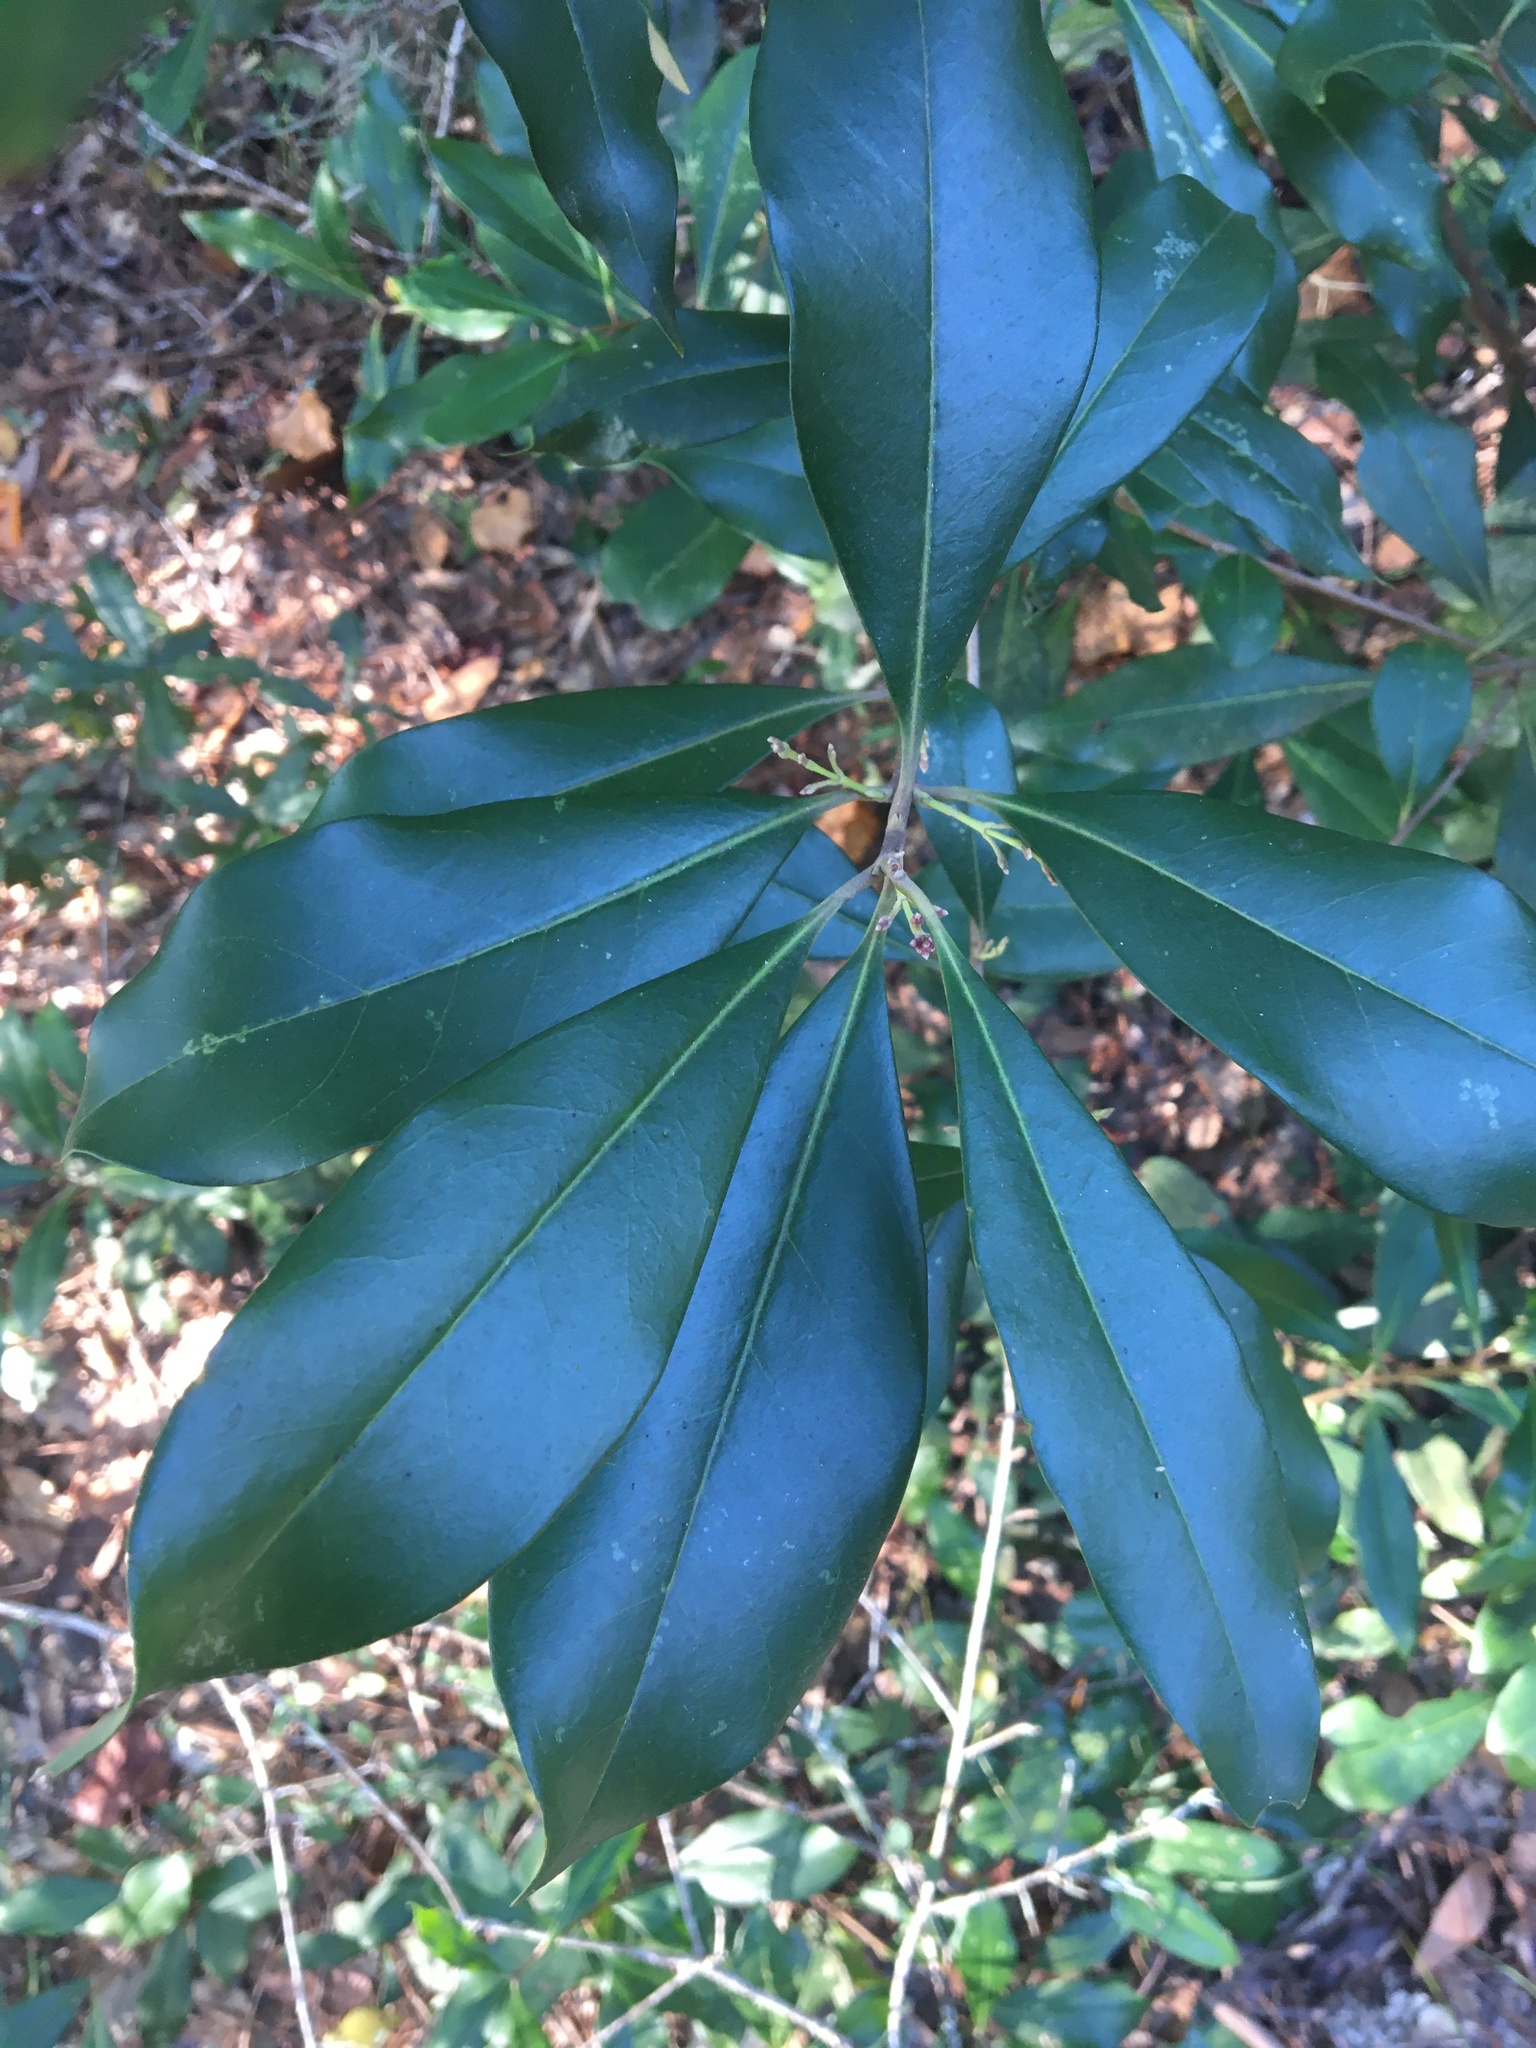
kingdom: Plantae
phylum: Tracheophyta
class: Magnoliopsida
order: Lamiales
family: Oleaceae
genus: Cartrema
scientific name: Cartrema americana
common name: Devilwood
